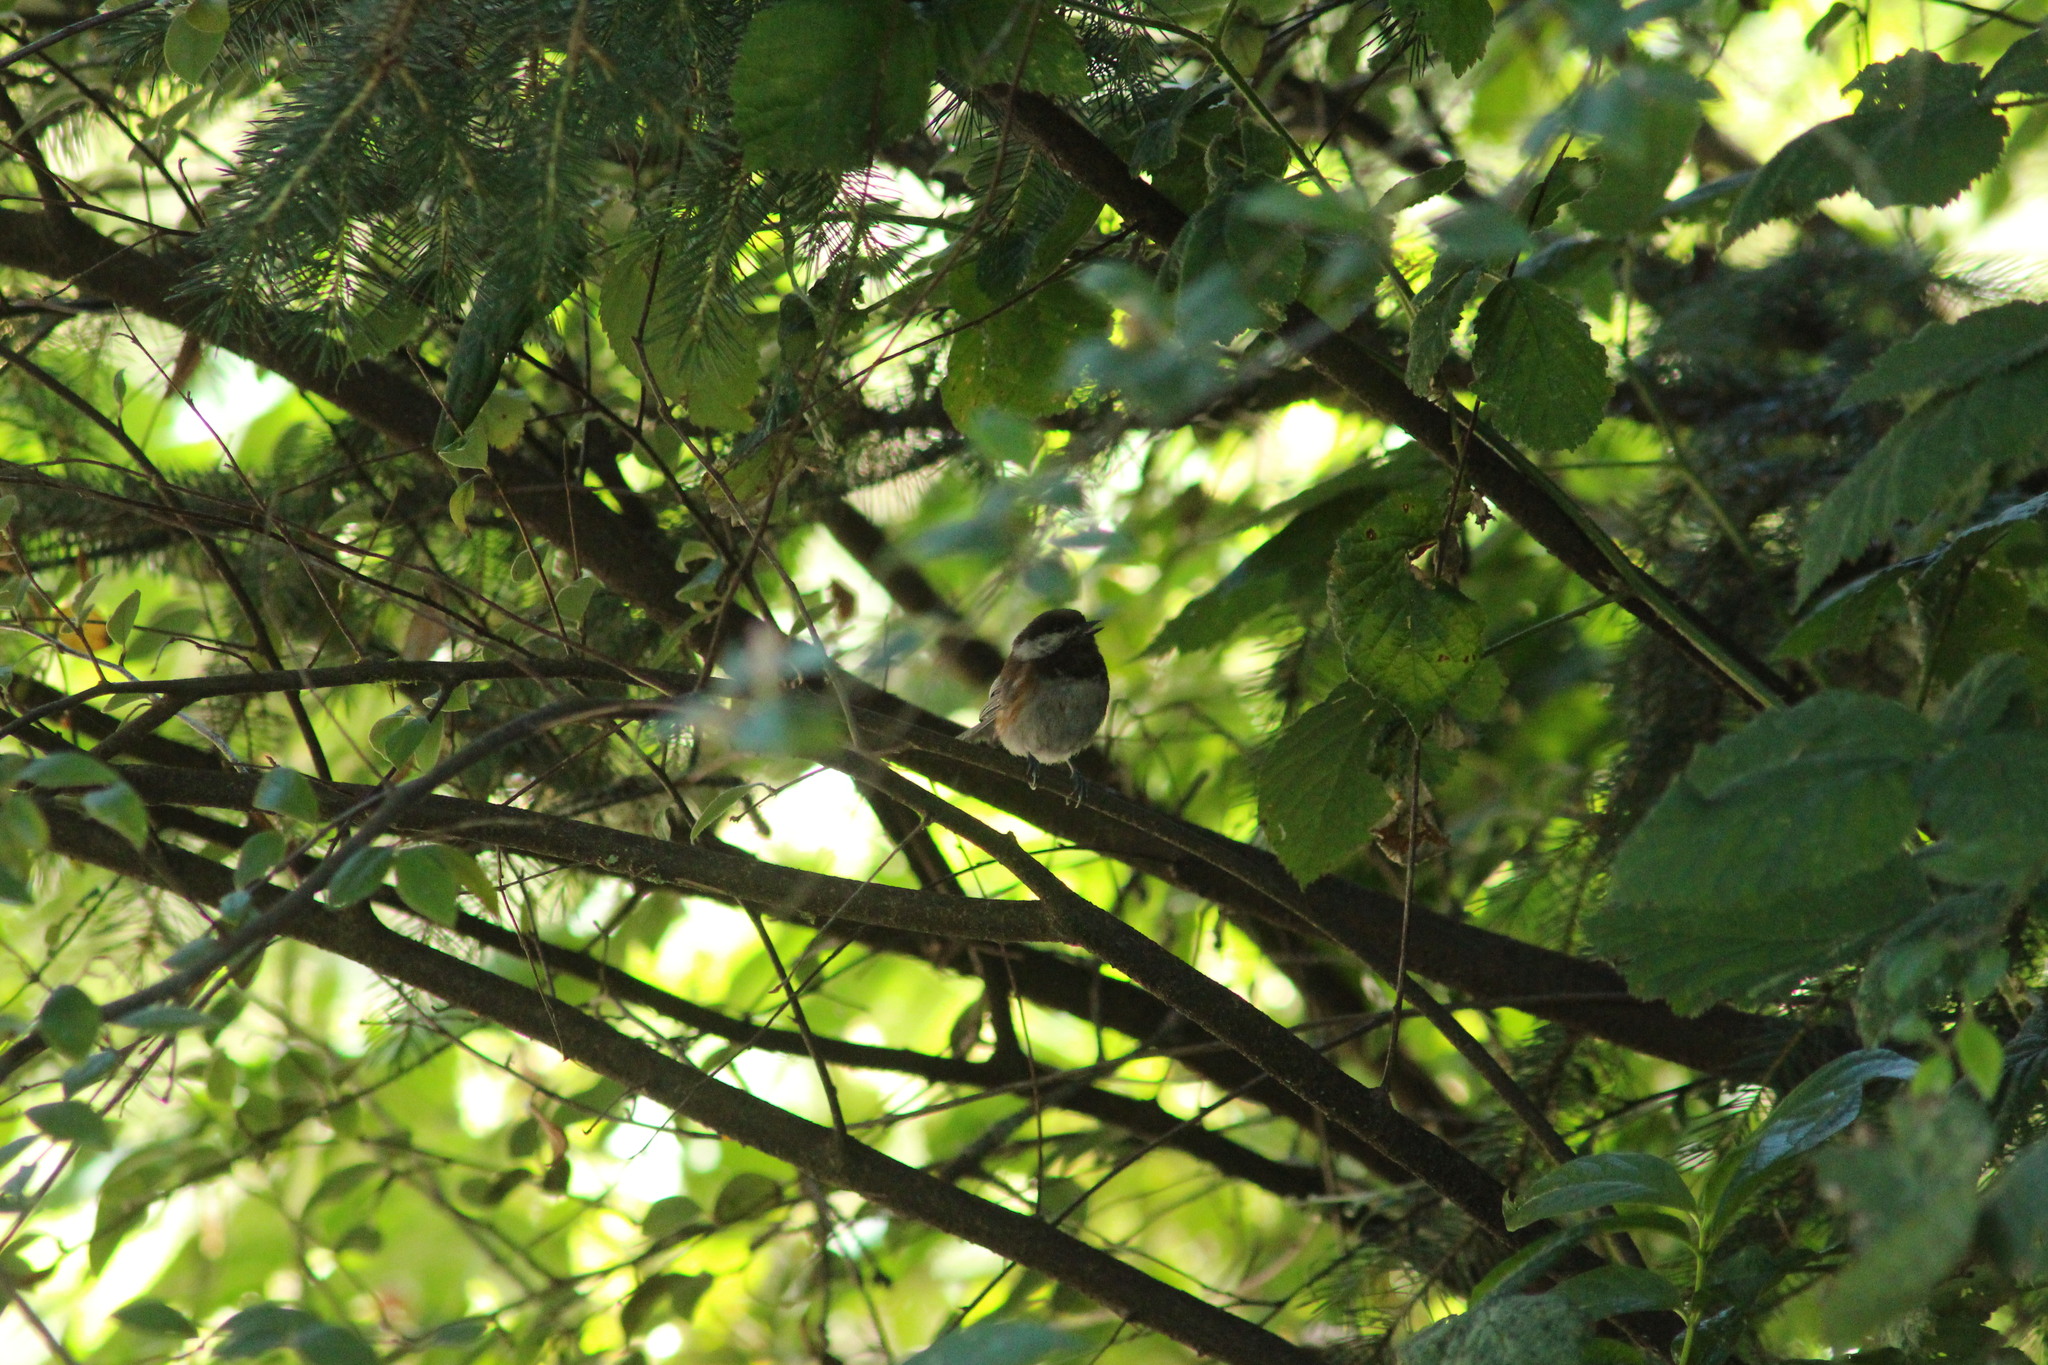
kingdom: Animalia
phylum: Chordata
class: Aves
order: Passeriformes
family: Paridae
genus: Poecile
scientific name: Poecile rufescens
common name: Chestnut-backed chickadee
